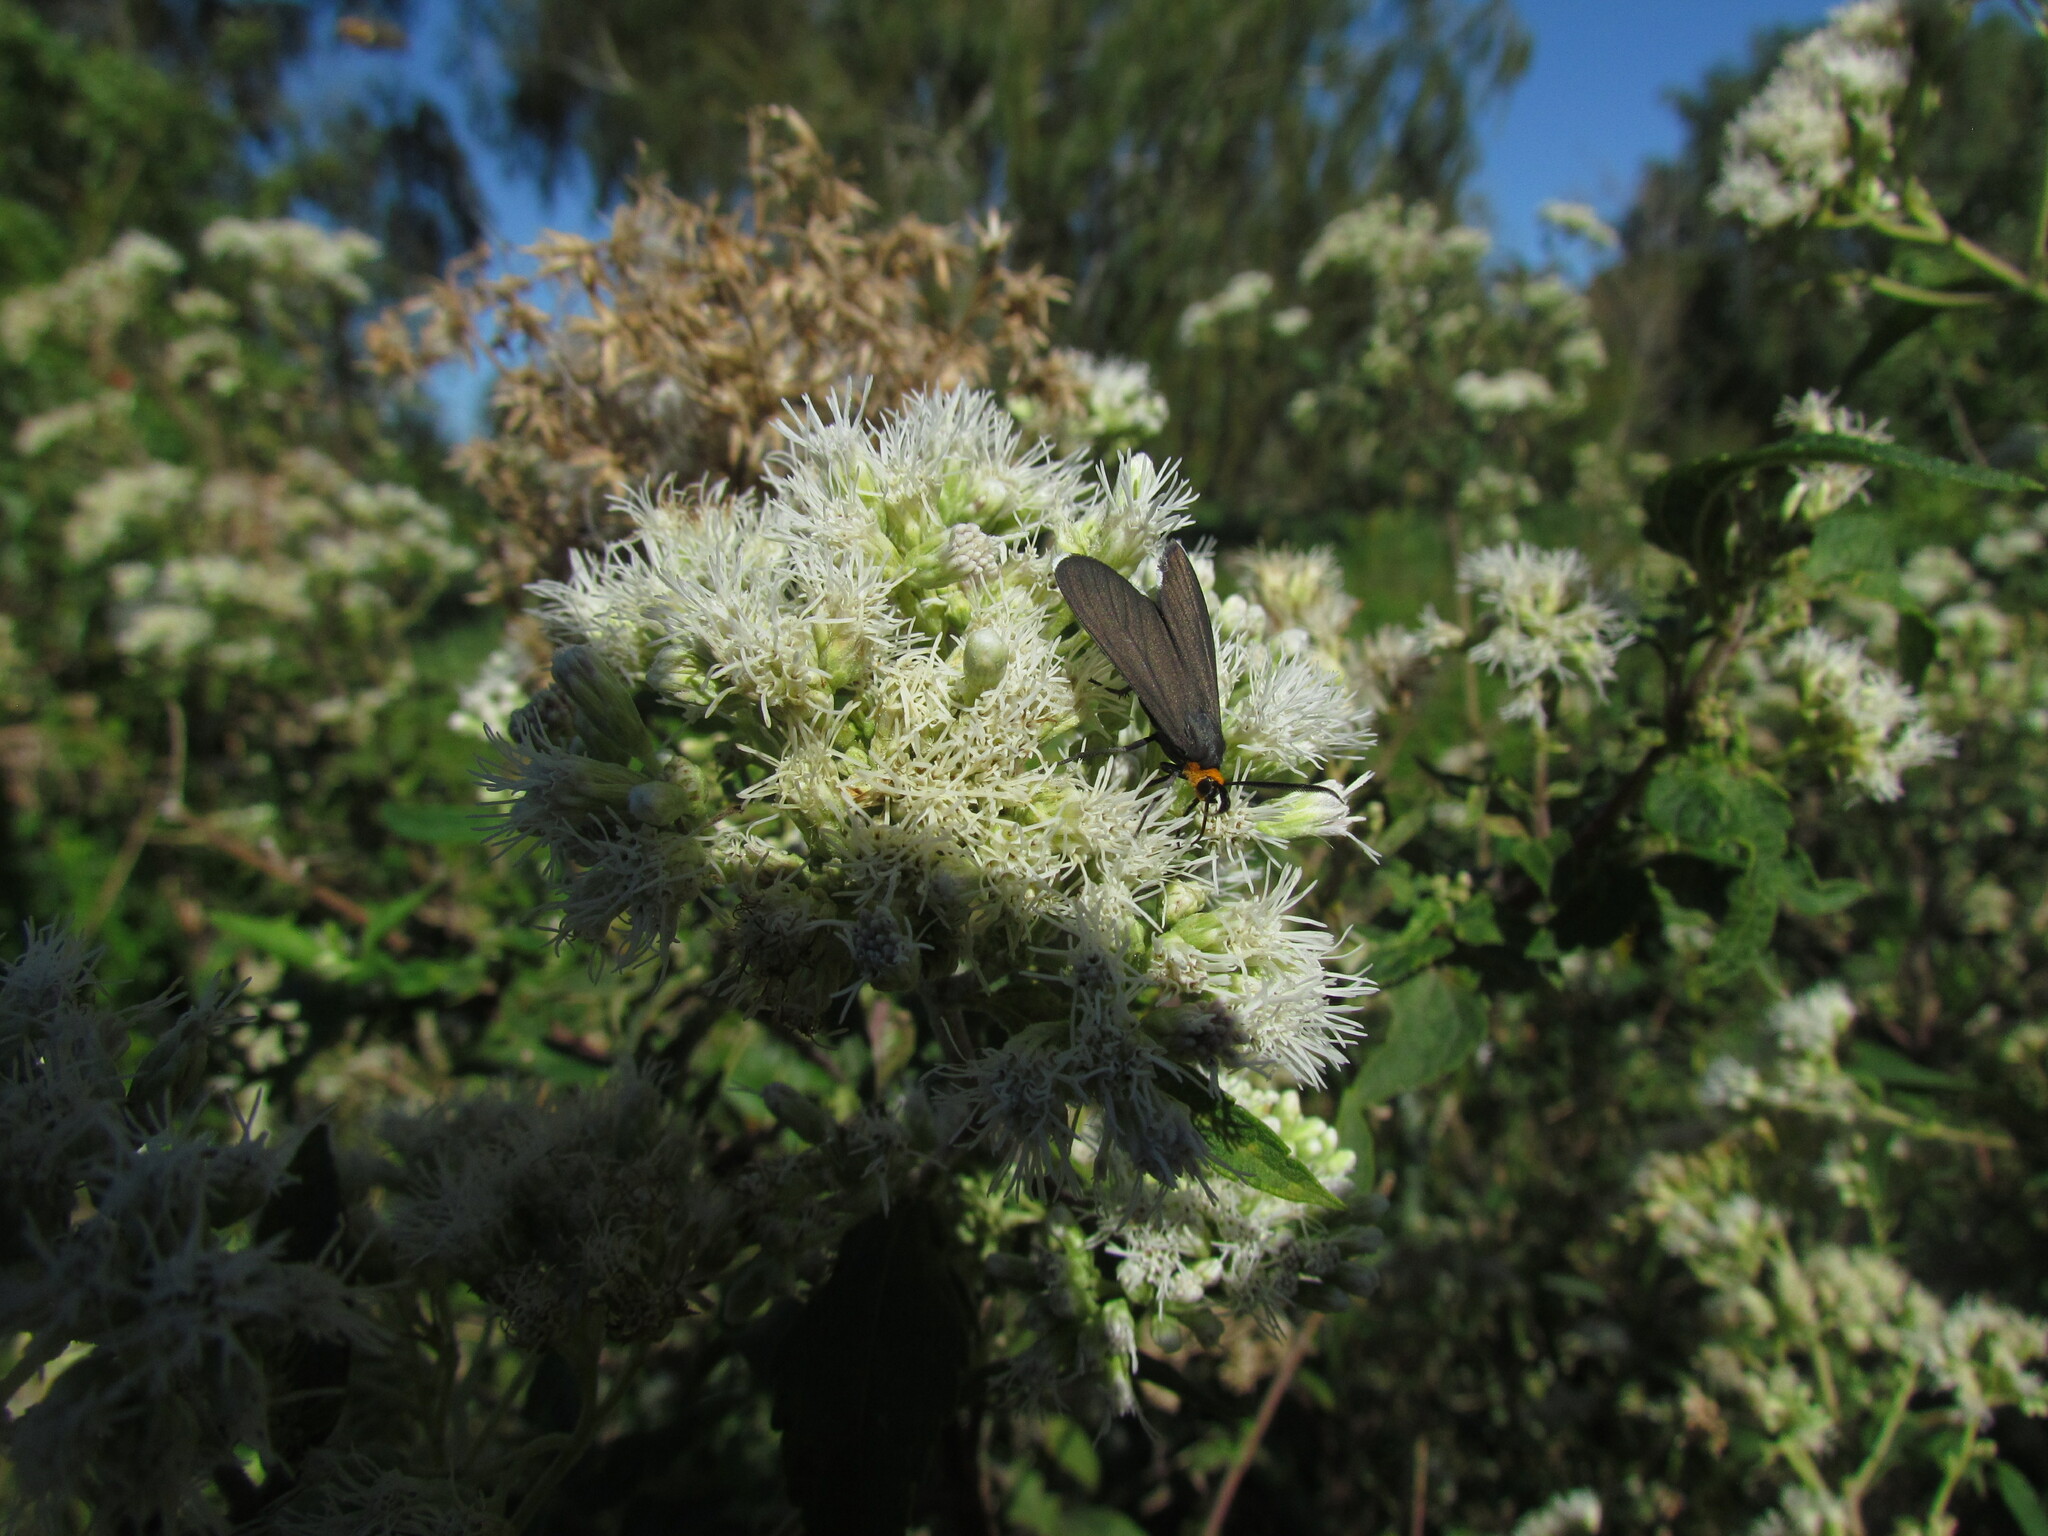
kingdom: Animalia
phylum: Arthropoda
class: Insecta
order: Lepidoptera
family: Erebidae
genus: Ctenucha
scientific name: Ctenucha rubriceps
